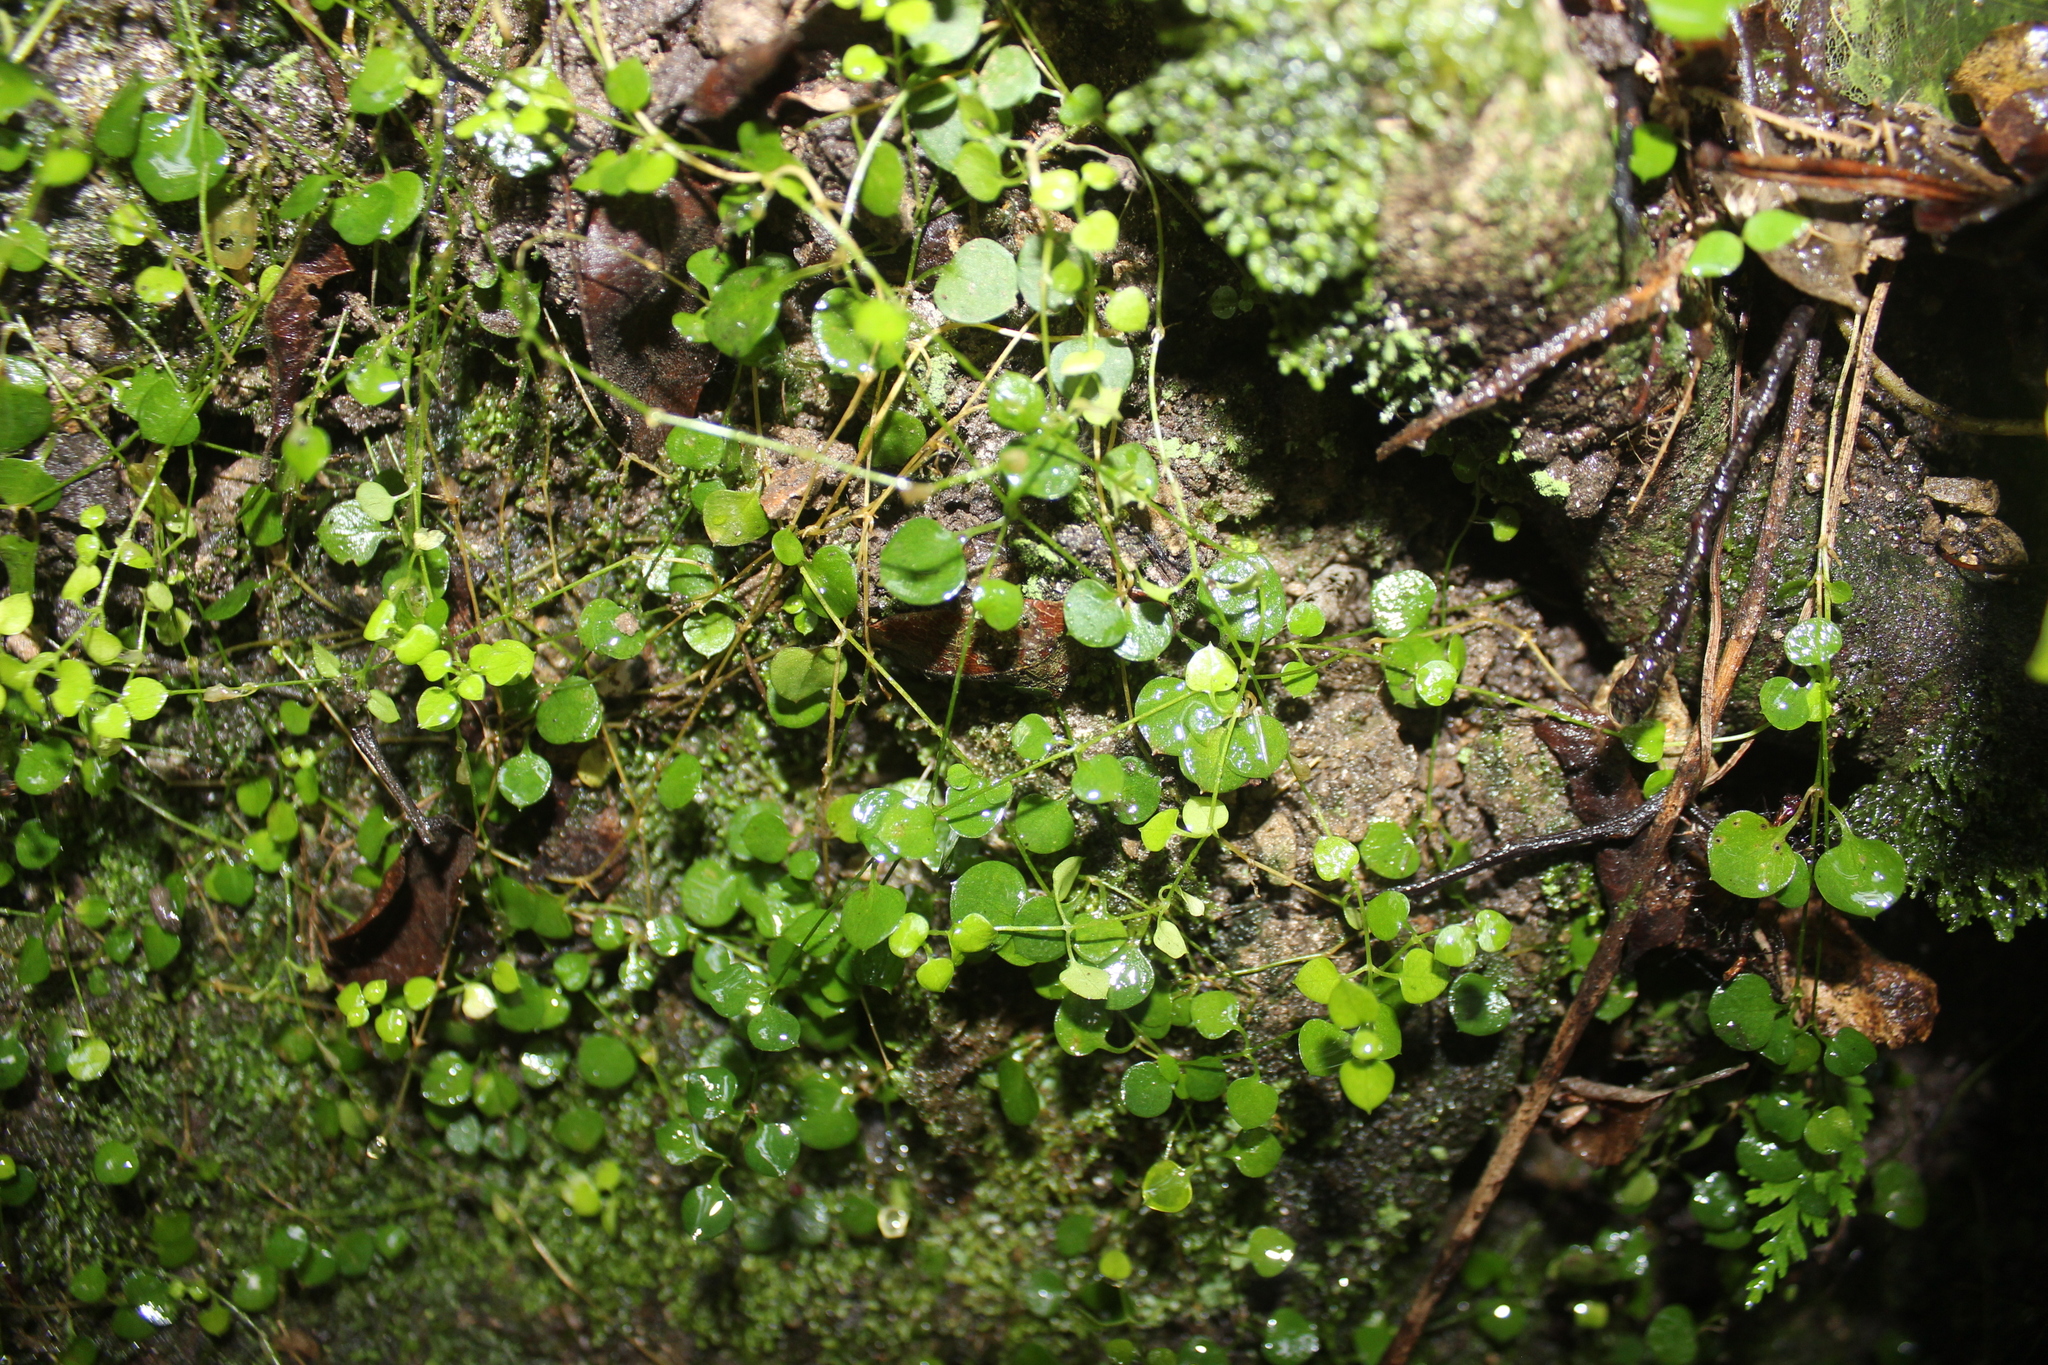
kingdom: Plantae
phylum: Tracheophyta
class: Magnoliopsida
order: Caryophyllales
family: Caryophyllaceae
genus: Stellaria
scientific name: Stellaria parviflora
